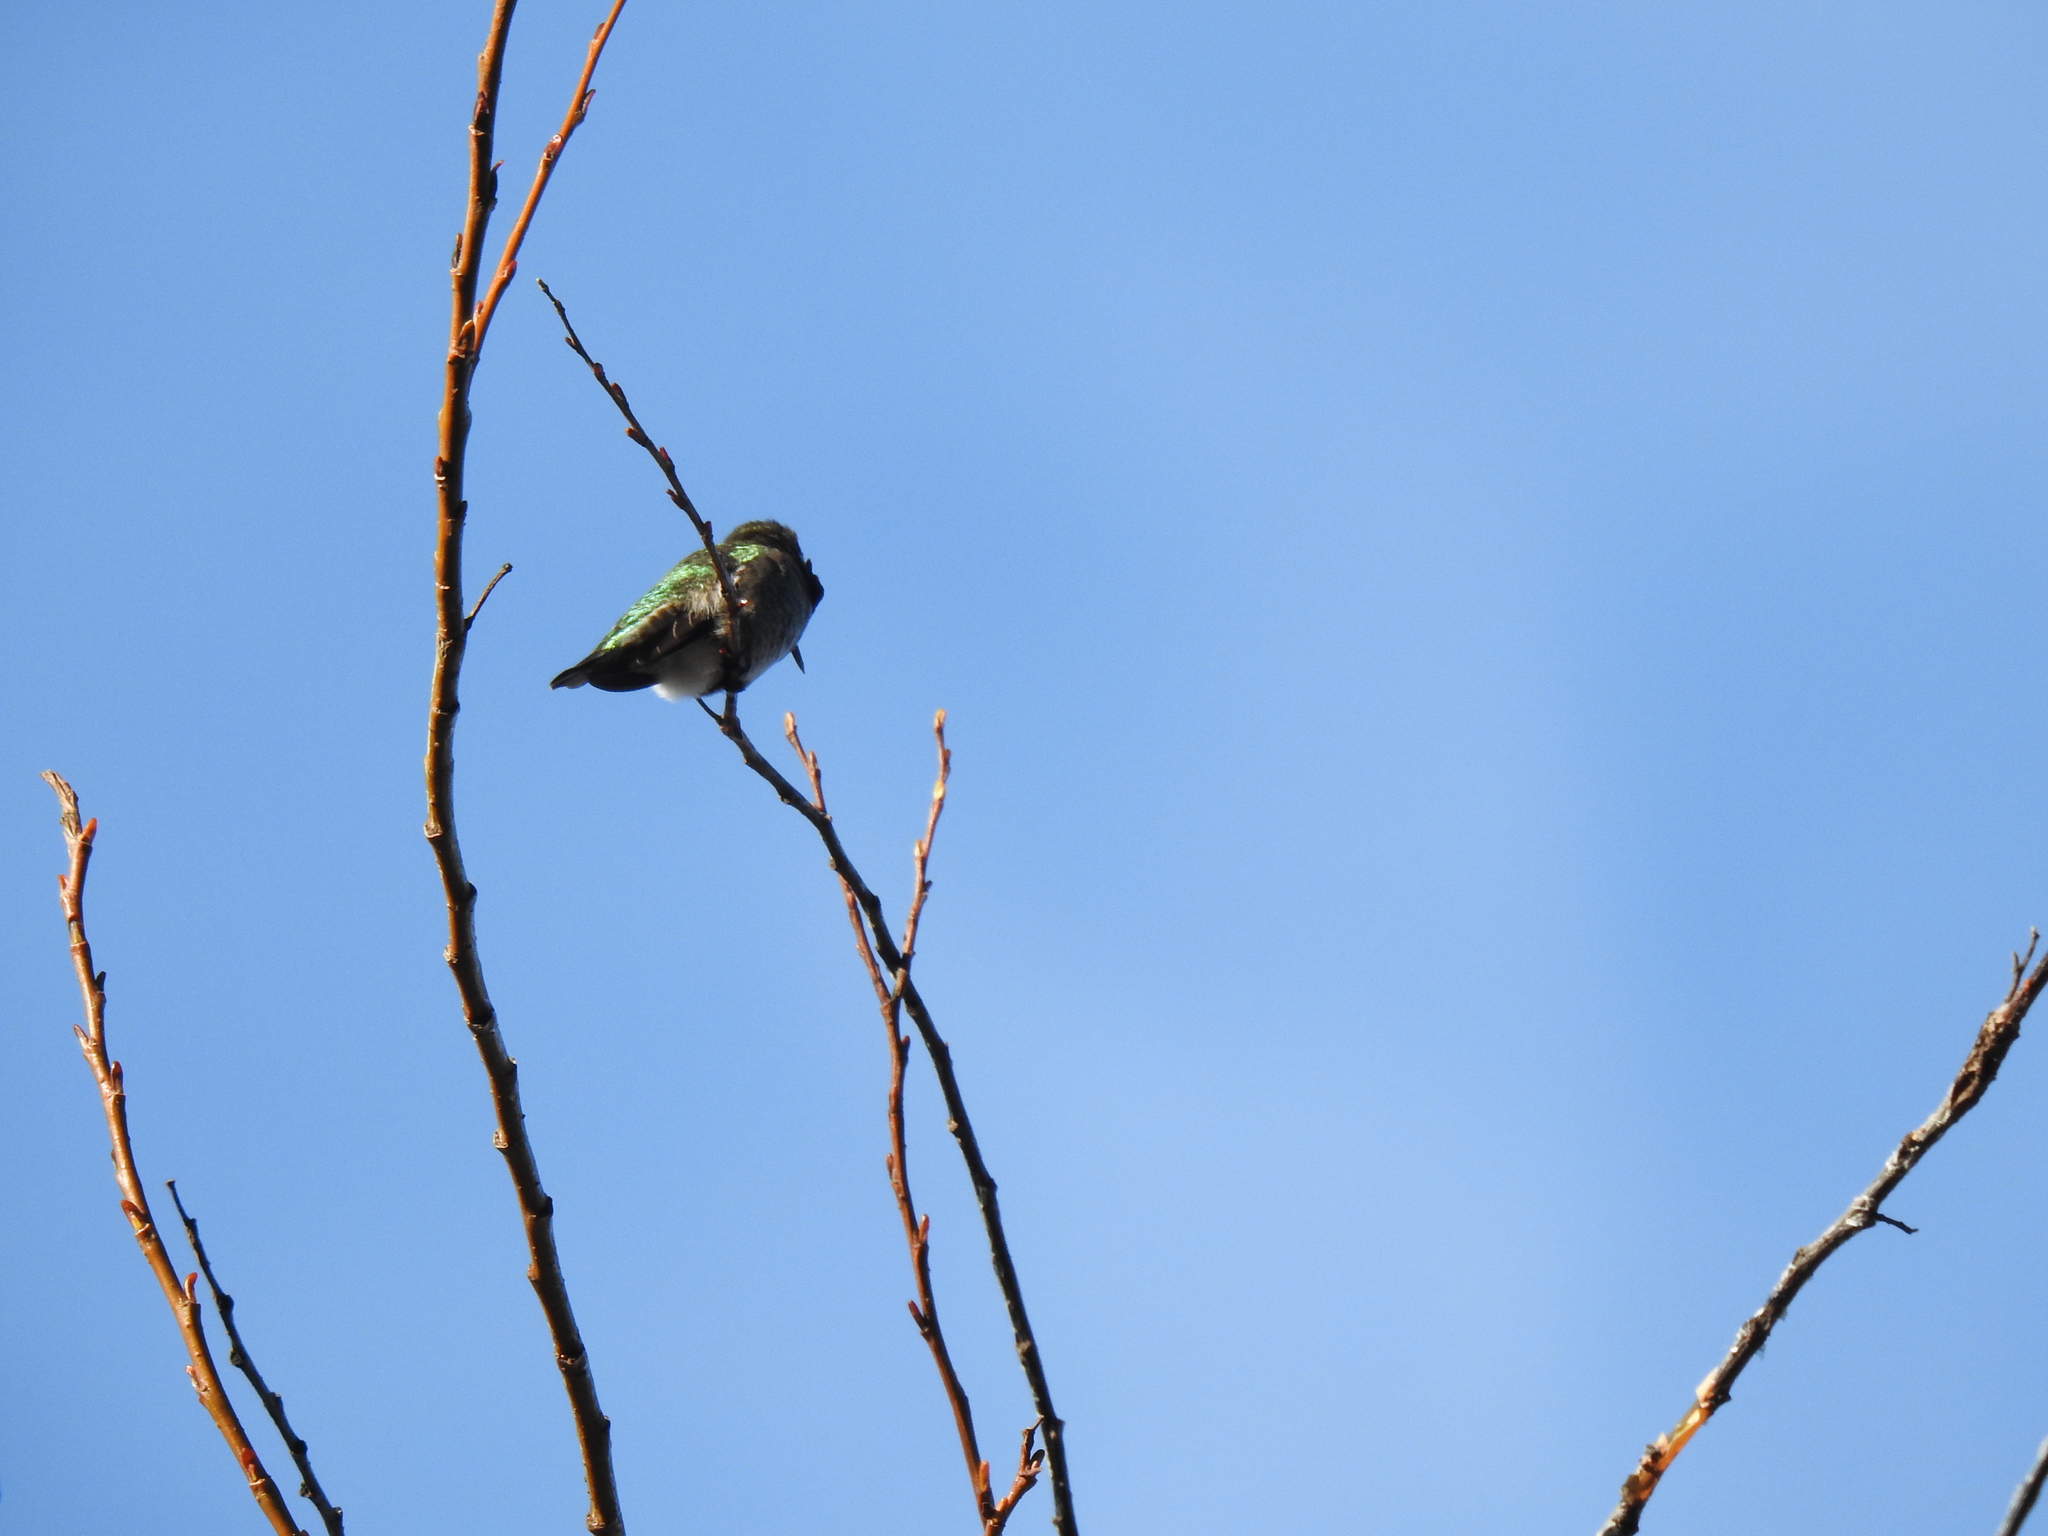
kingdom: Animalia
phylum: Chordata
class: Aves
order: Apodiformes
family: Trochilidae
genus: Calypte
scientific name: Calypte anna
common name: Anna's hummingbird
